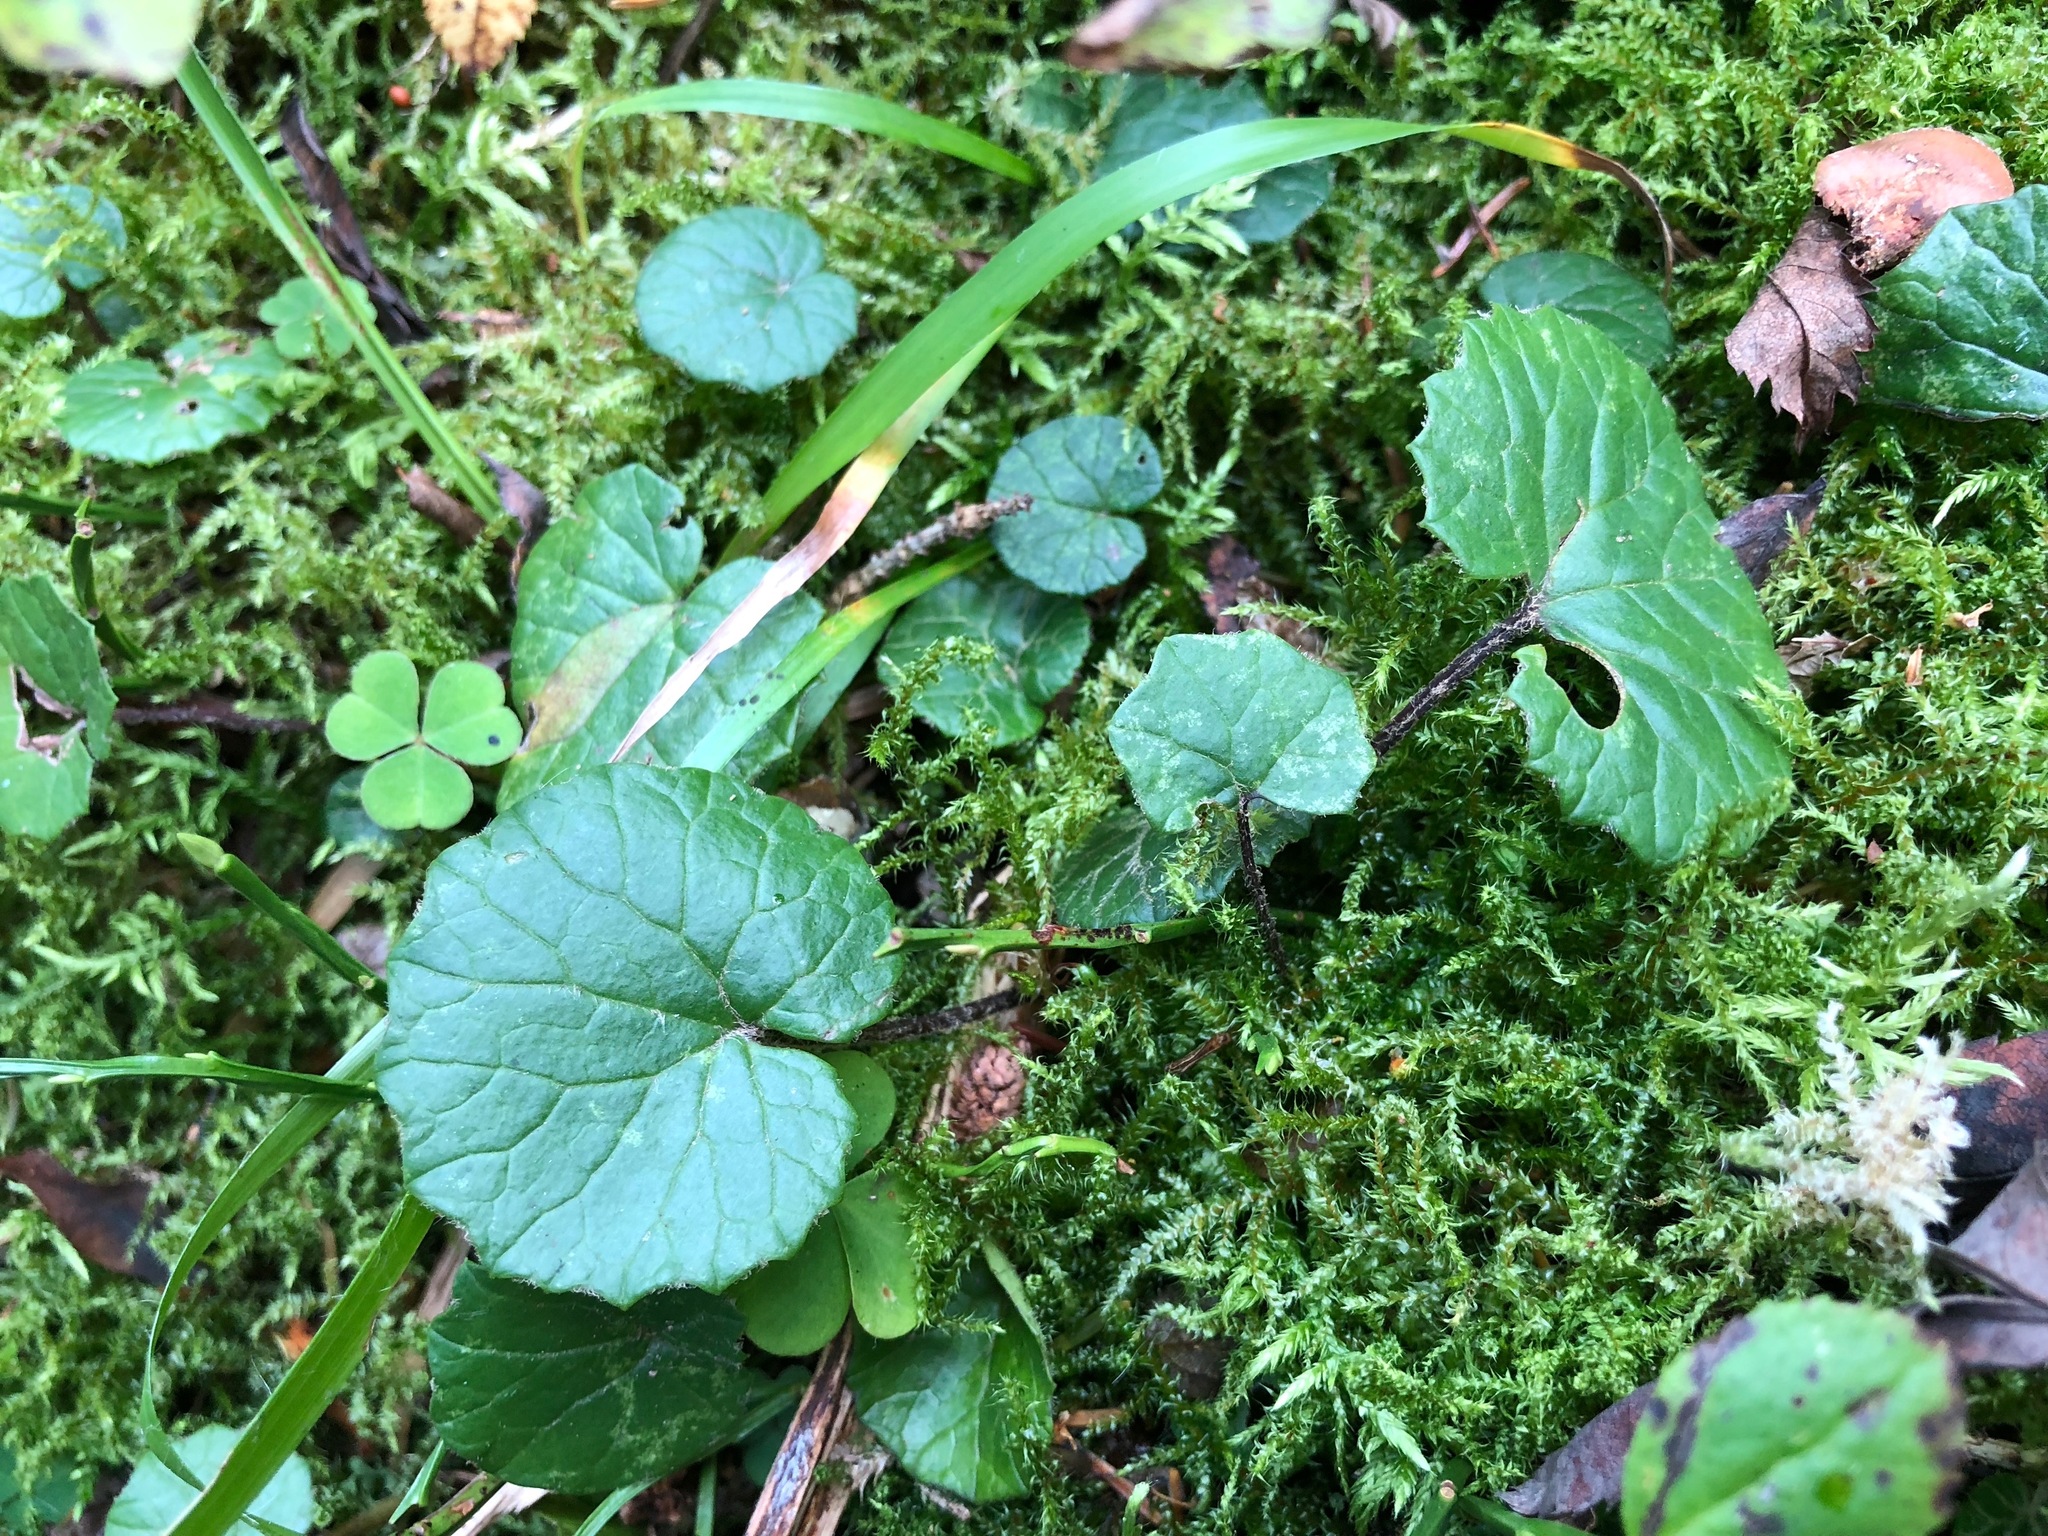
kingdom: Plantae
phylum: Tracheophyta
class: Magnoliopsida
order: Asterales
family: Asteraceae
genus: Homogyne
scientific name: Homogyne alpina
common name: Purple colt's-foot
